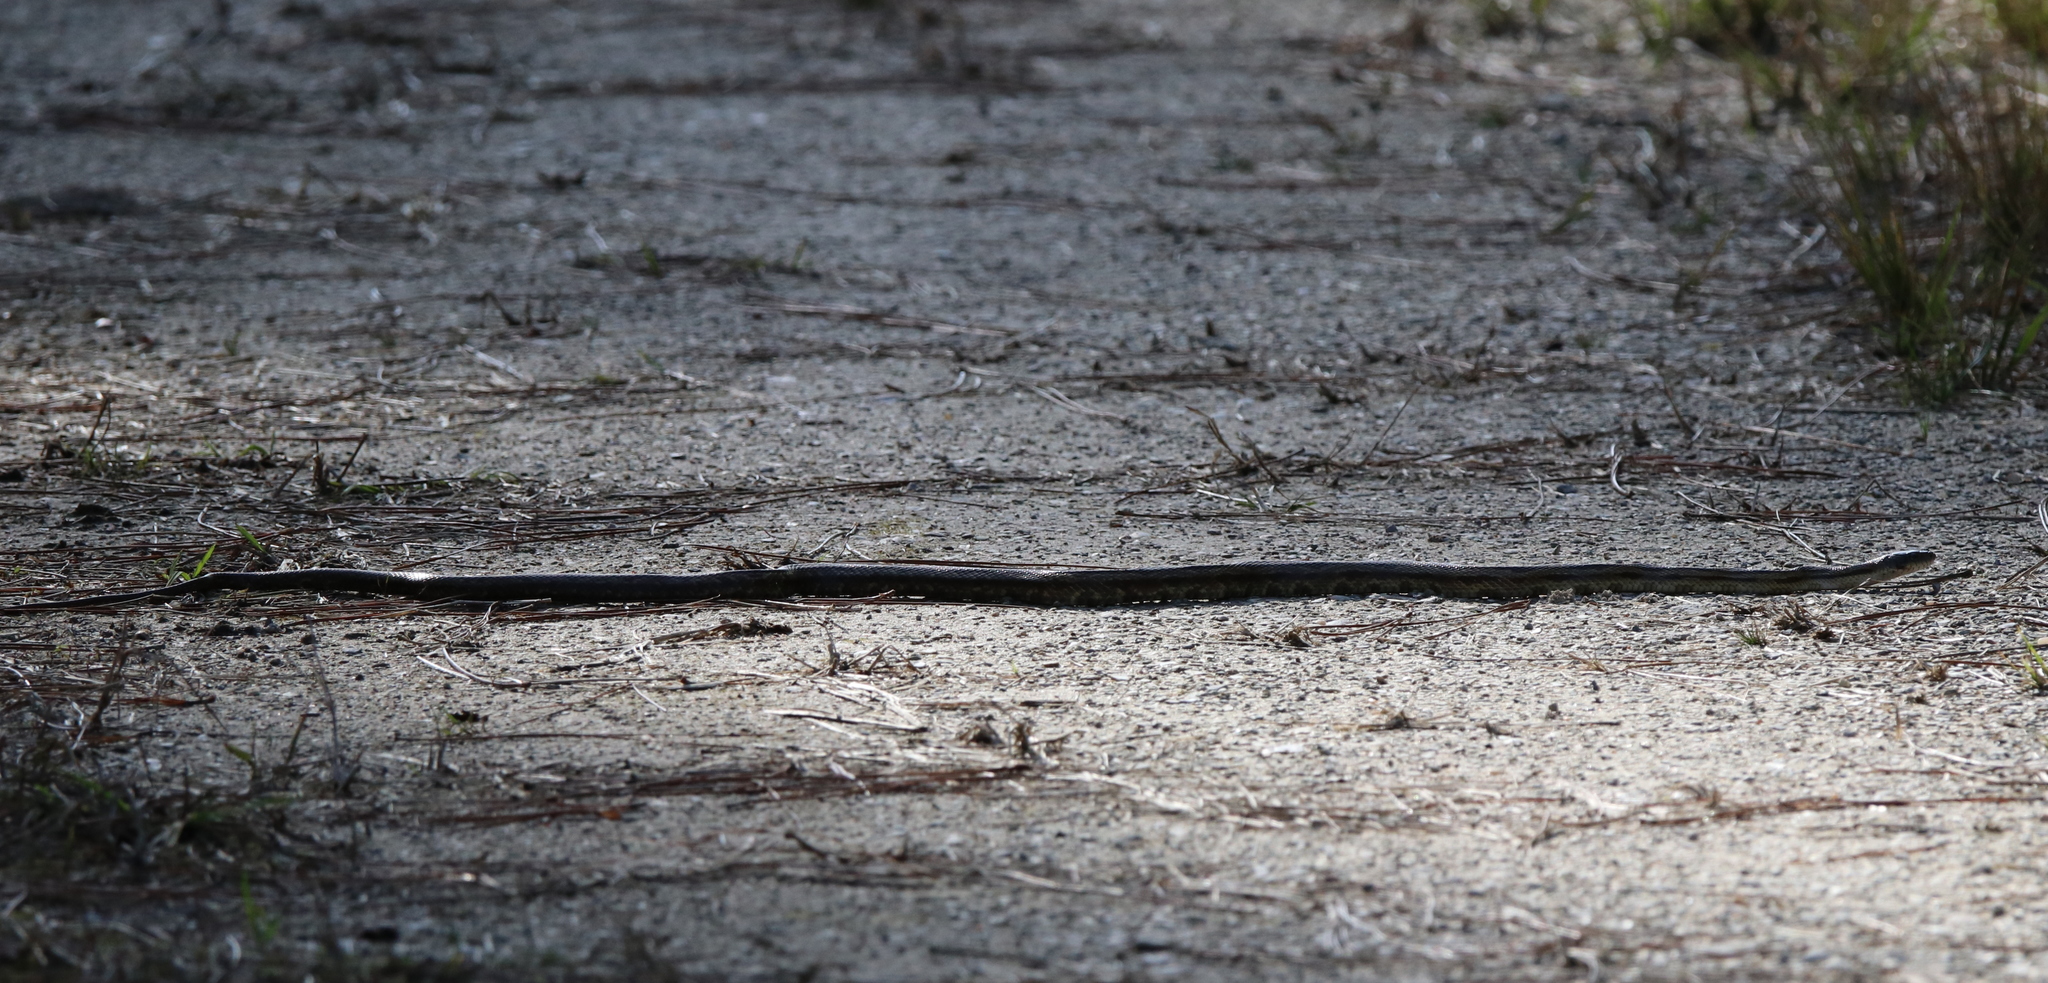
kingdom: Animalia
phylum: Chordata
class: Squamata
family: Colubridae
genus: Pantherophis
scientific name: Pantherophis spiloides
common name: Gray rat snake
